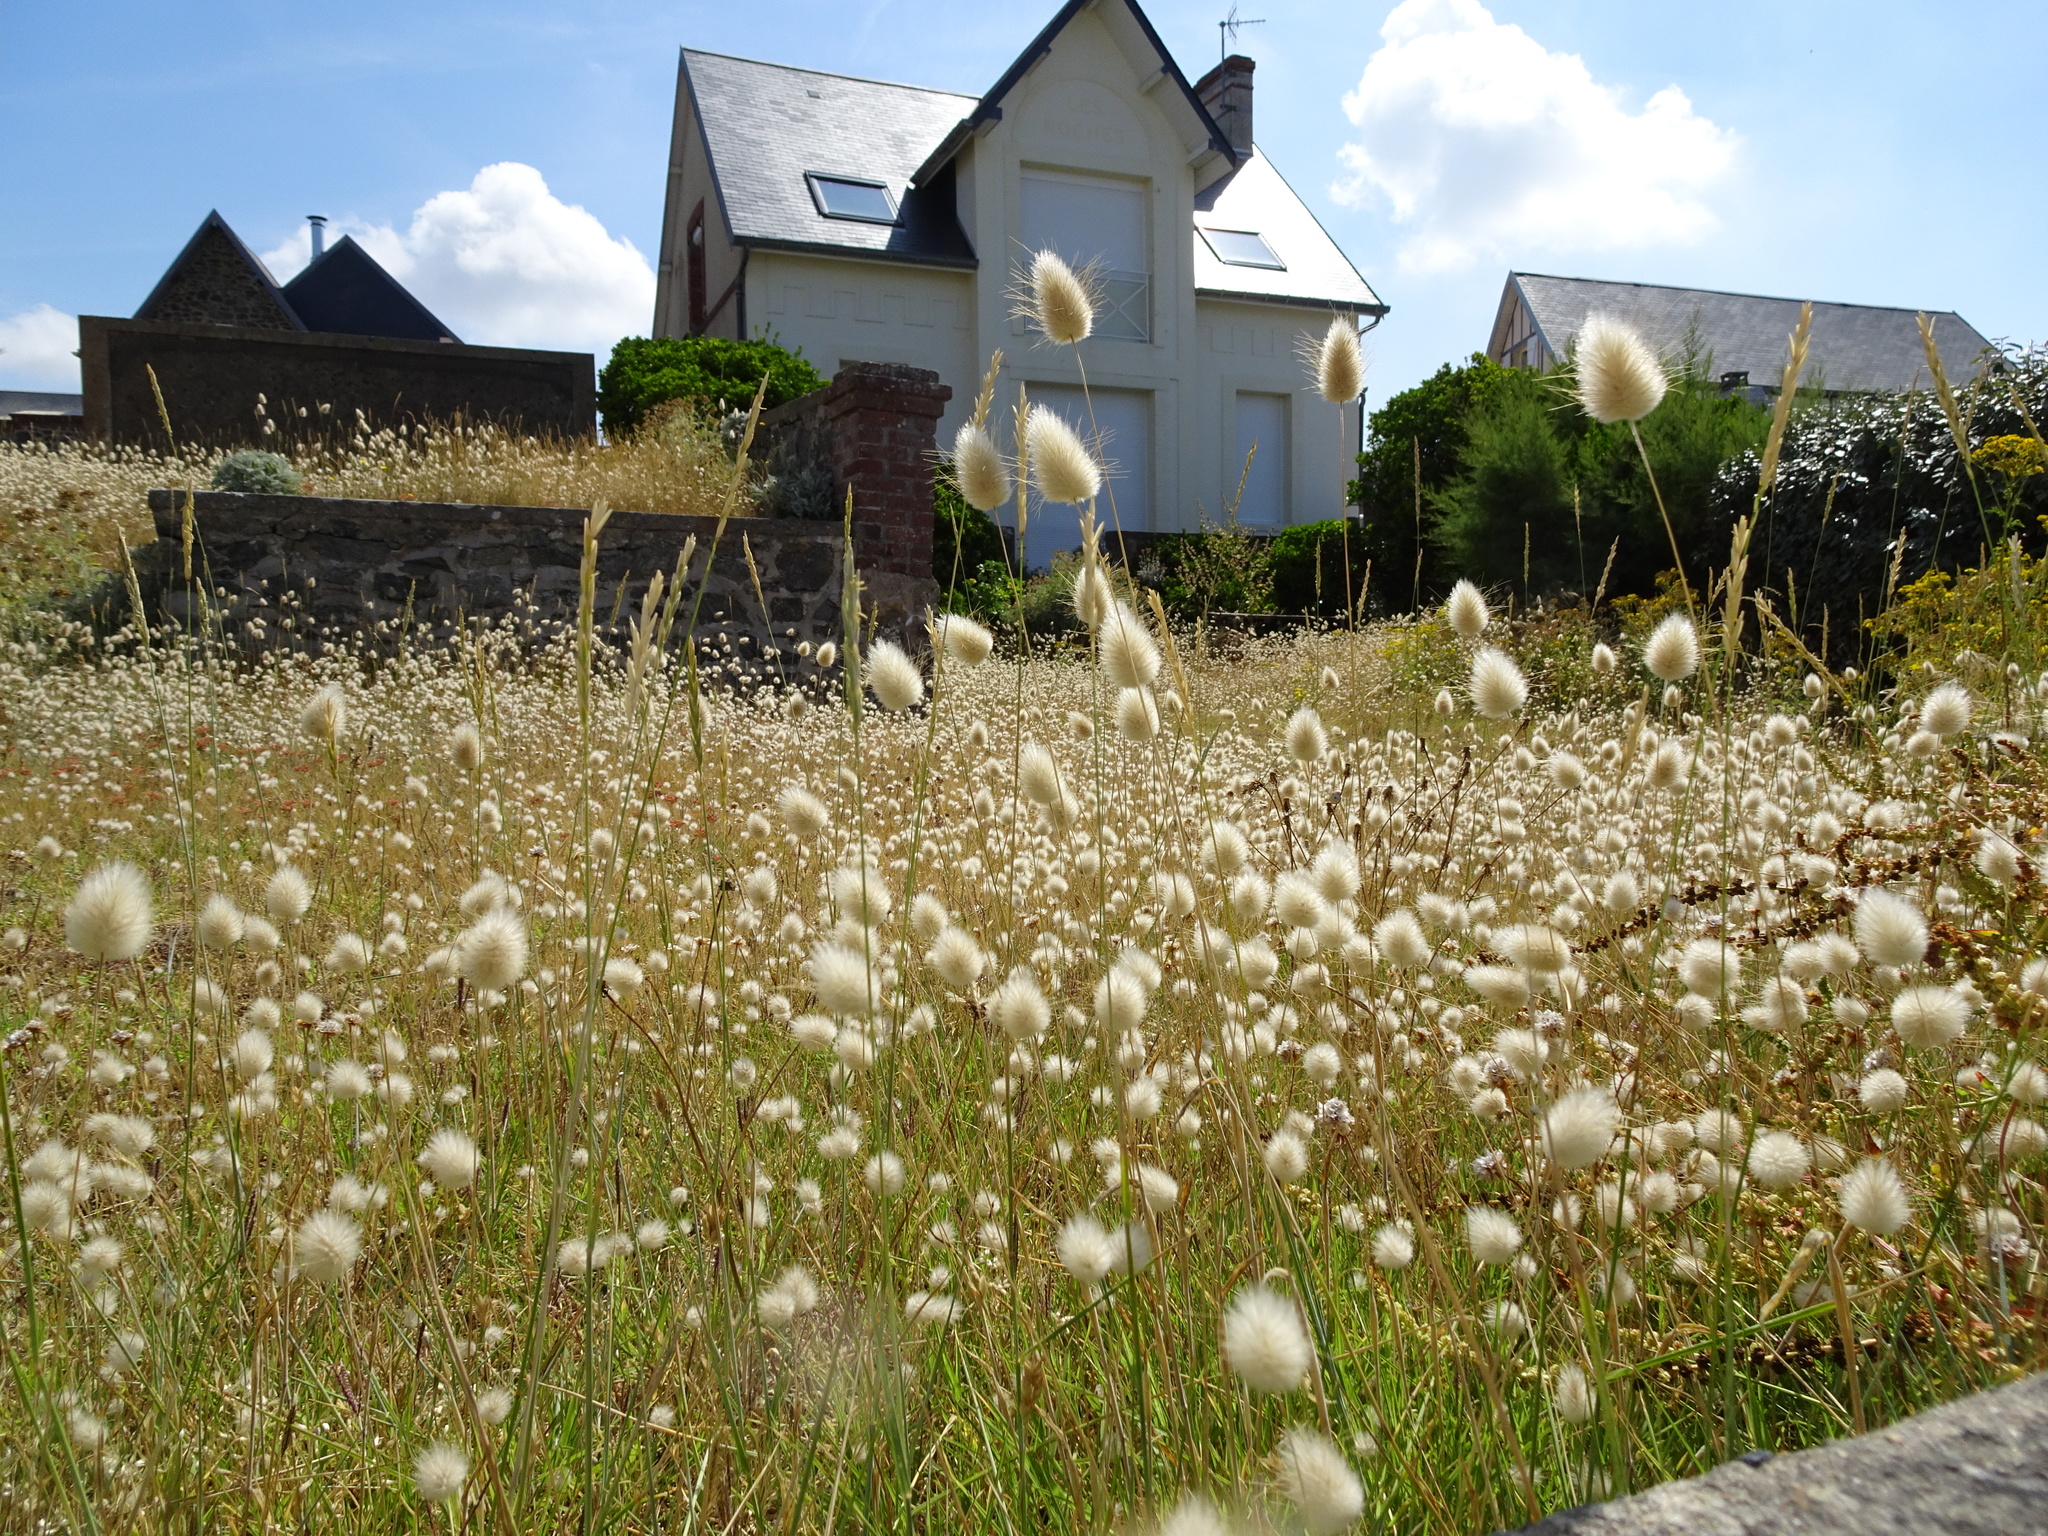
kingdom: Plantae
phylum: Tracheophyta
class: Liliopsida
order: Poales
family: Poaceae
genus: Lagurus
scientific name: Lagurus ovatus
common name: Hare's-tail
